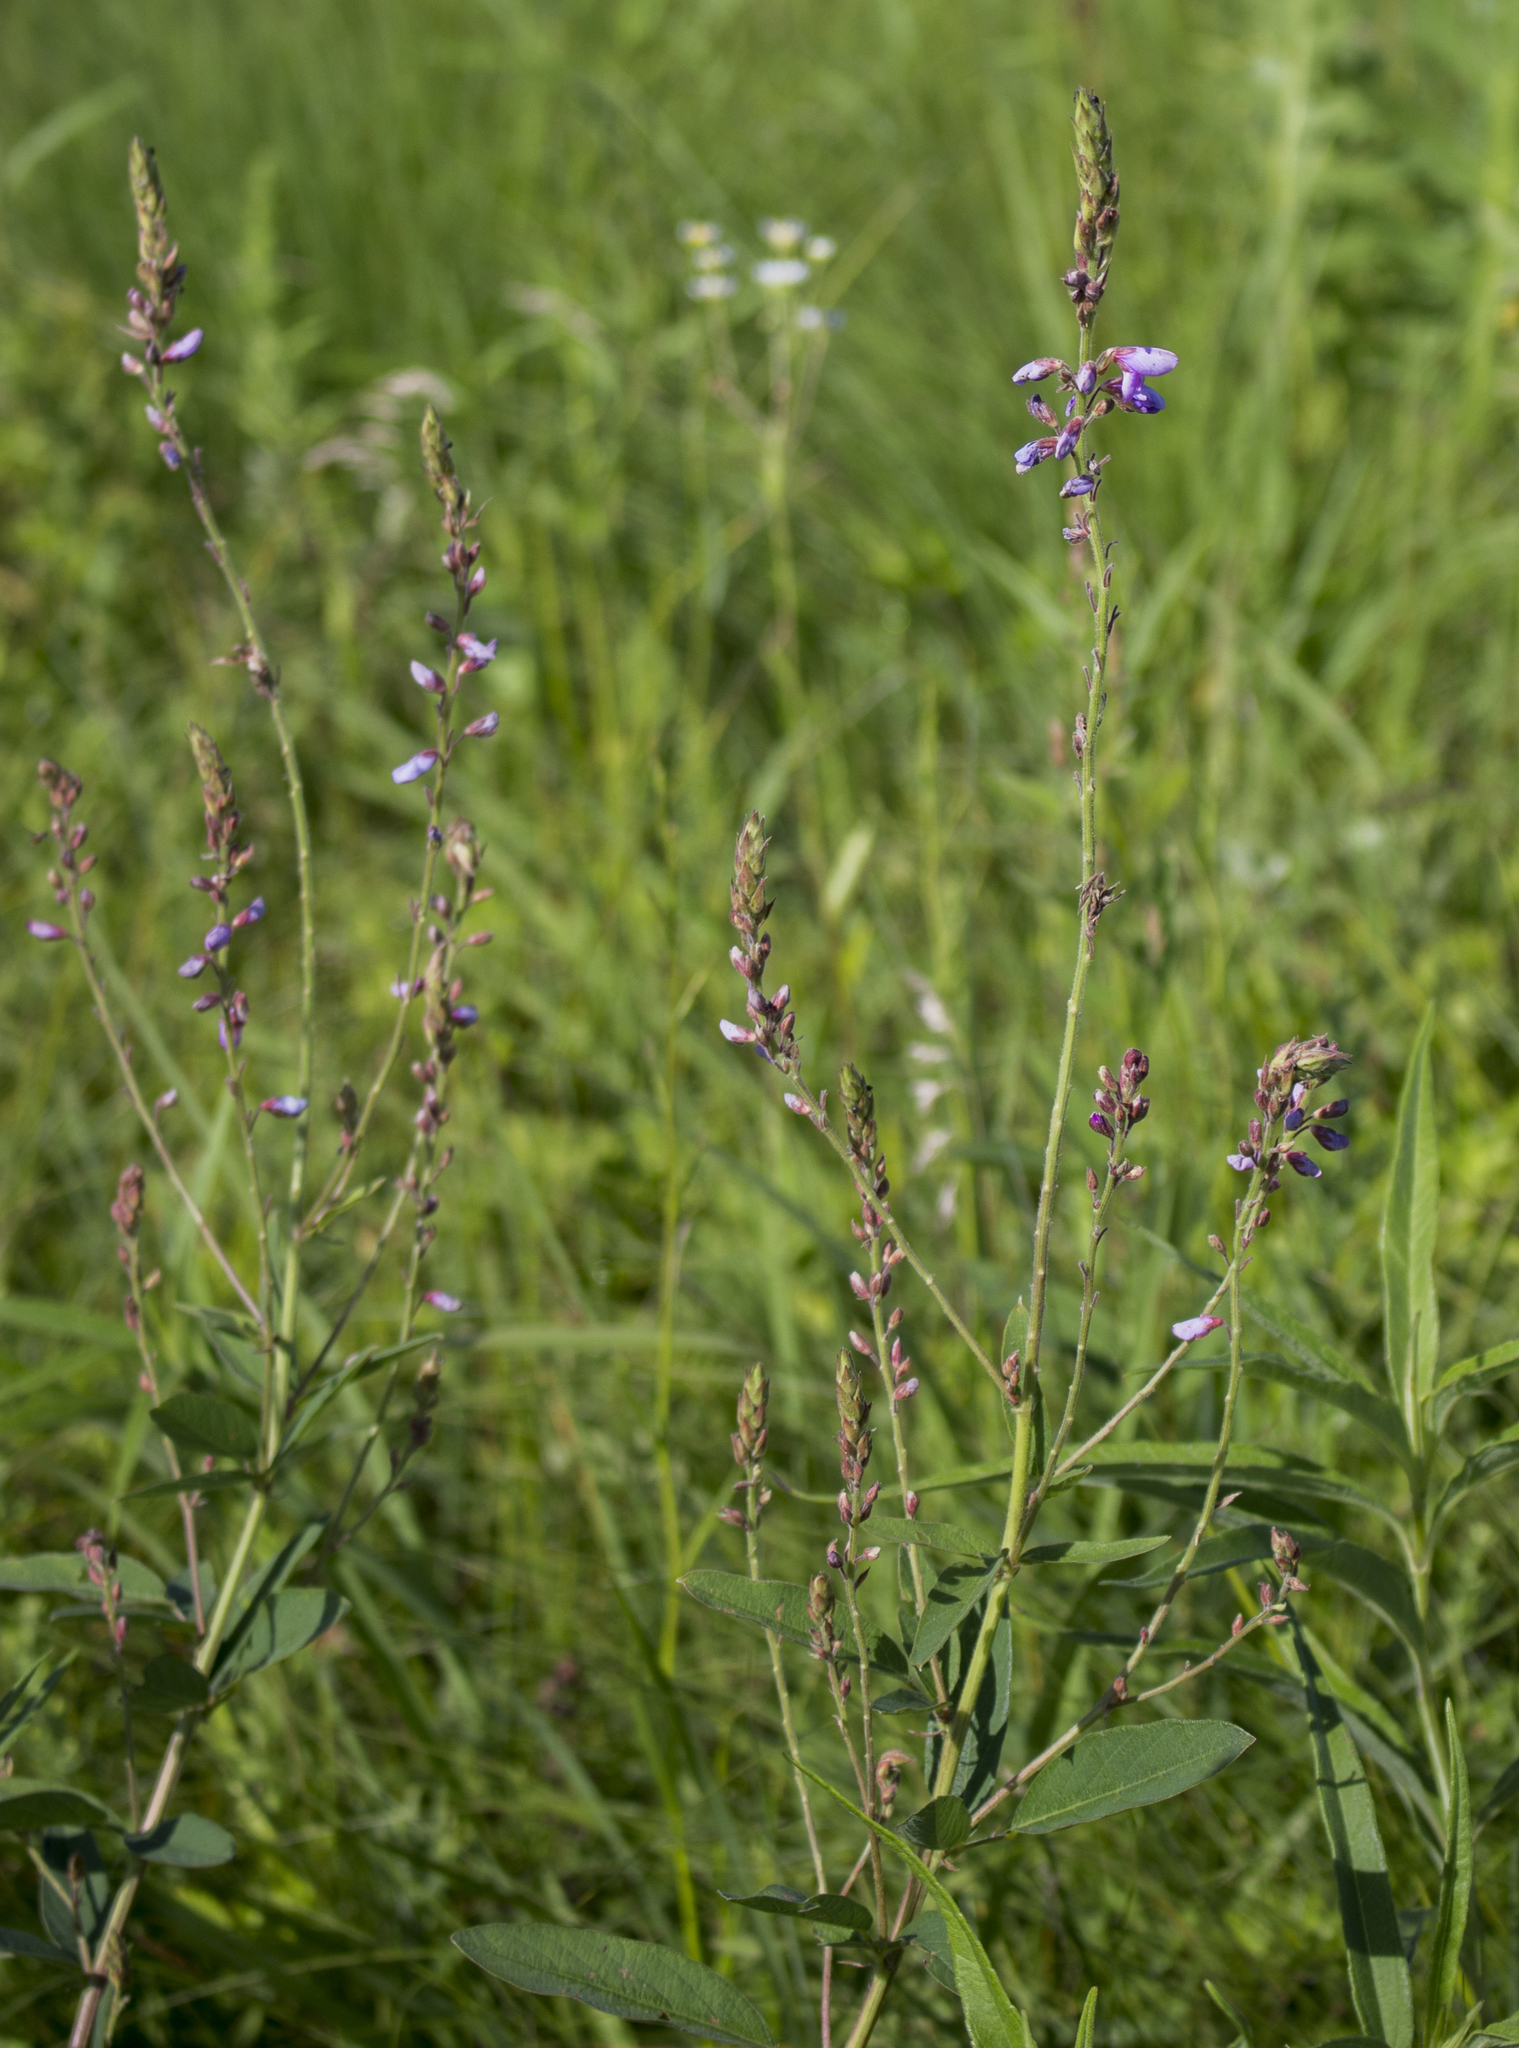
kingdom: Plantae
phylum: Tracheophyta
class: Magnoliopsida
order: Fabales
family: Fabaceae
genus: Desmodium
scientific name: Desmodium canadense
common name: Canada tick-trefoil
